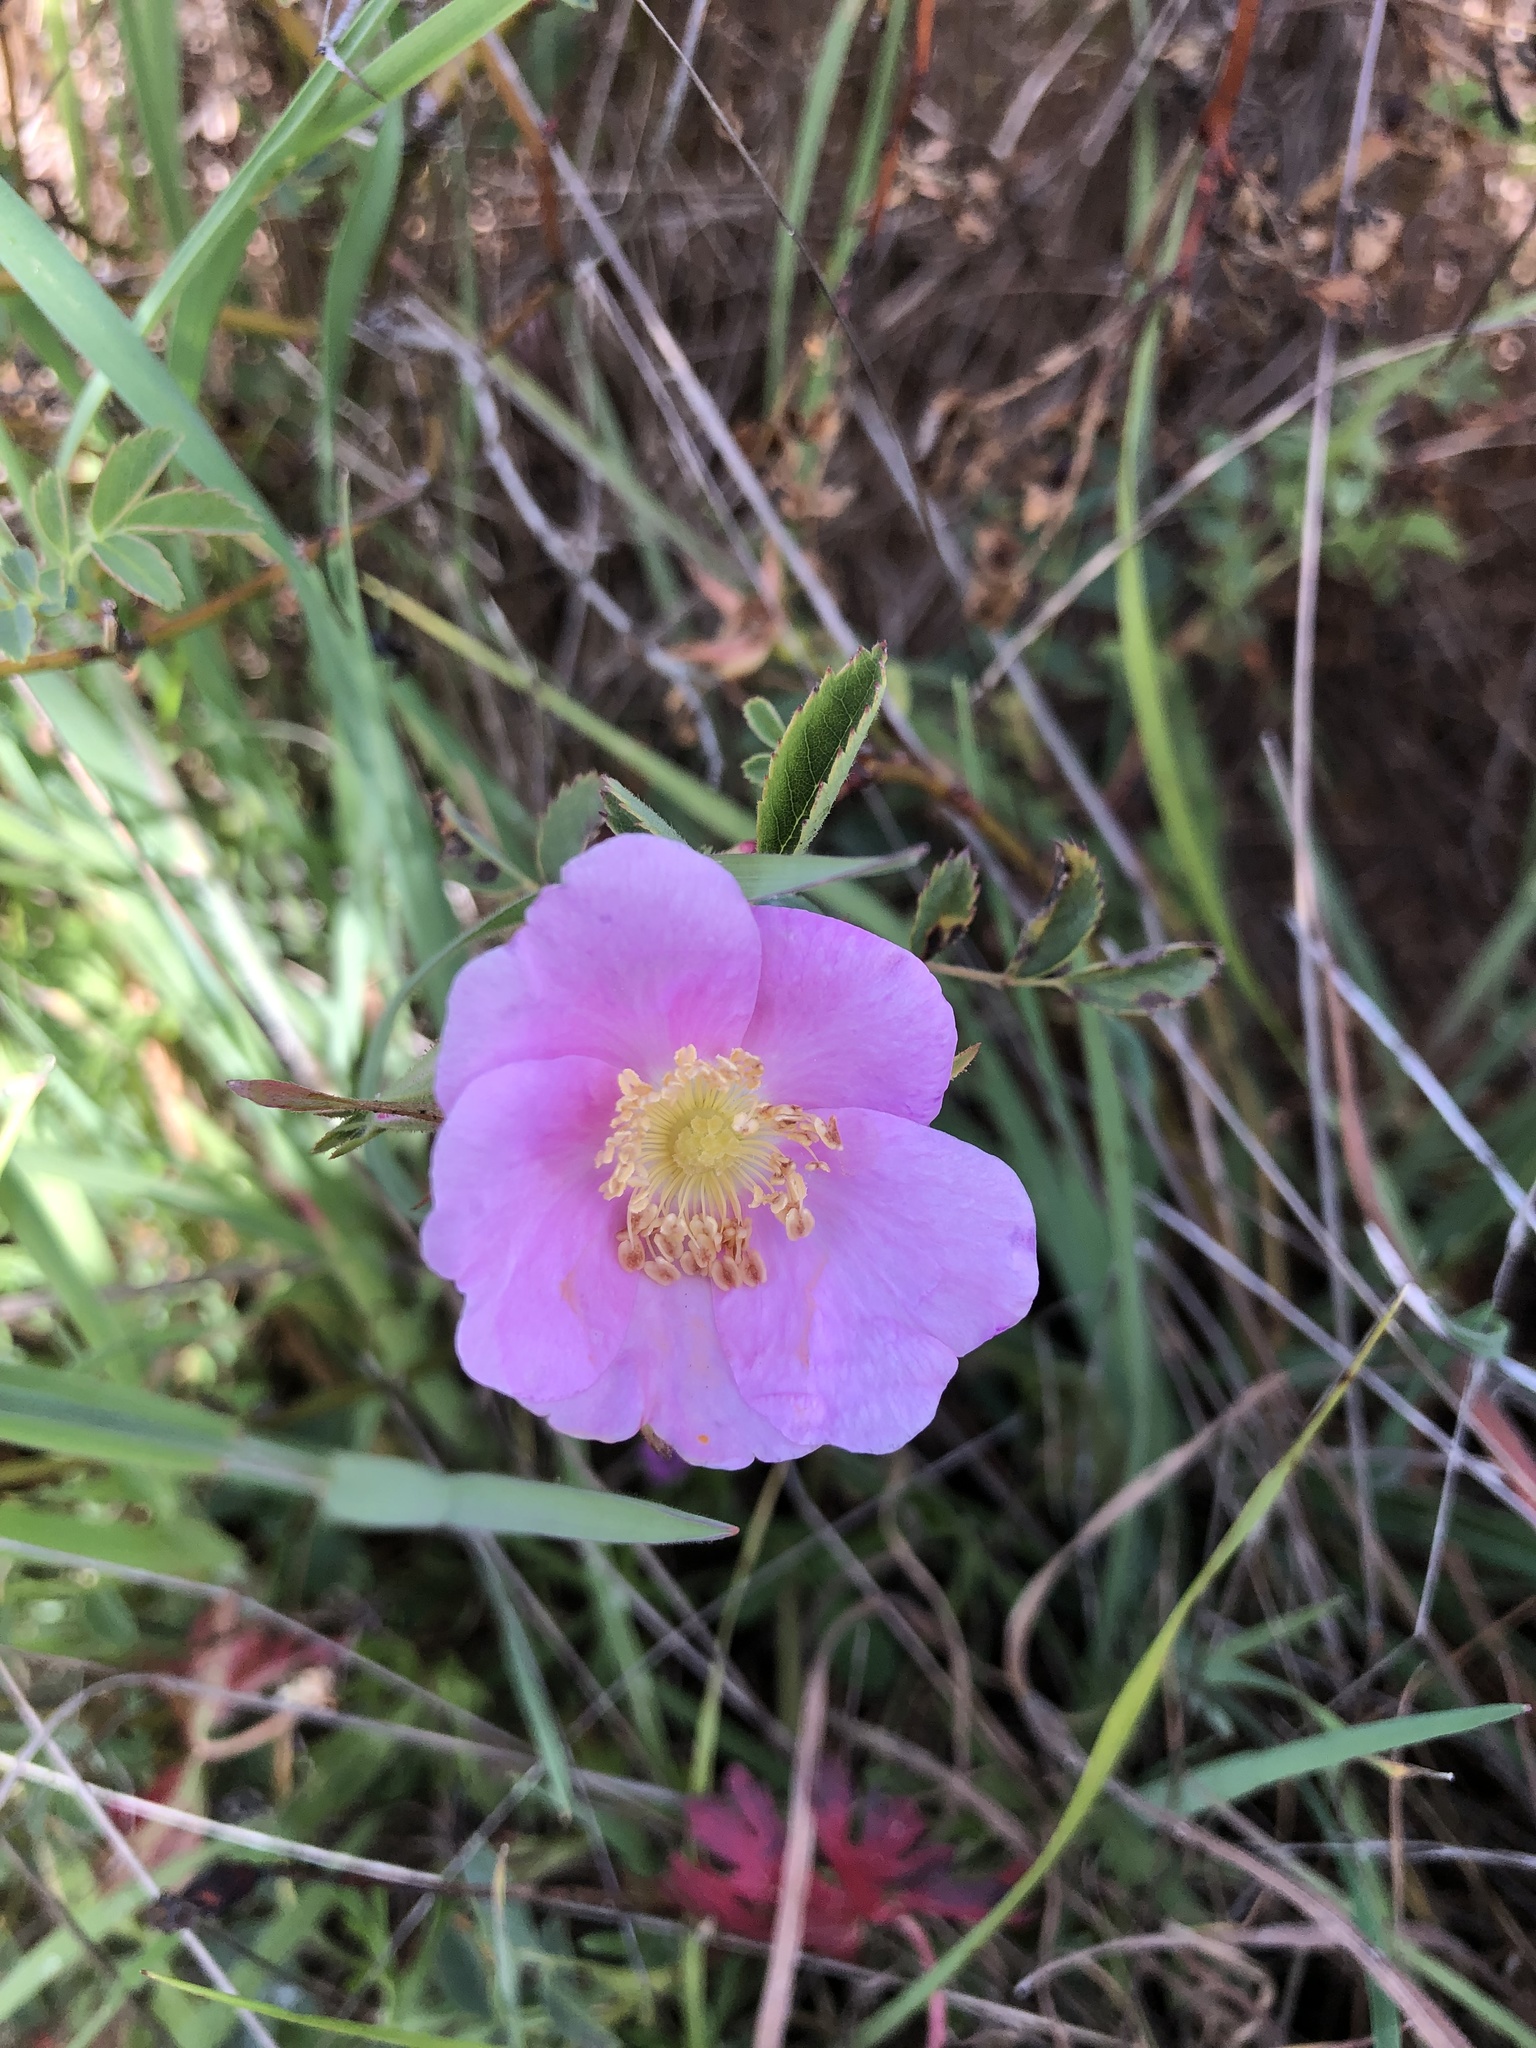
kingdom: Plantae
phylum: Tracheophyta
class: Magnoliopsida
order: Rosales
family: Rosaceae
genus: Rosa
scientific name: Rosa californica
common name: California rose
